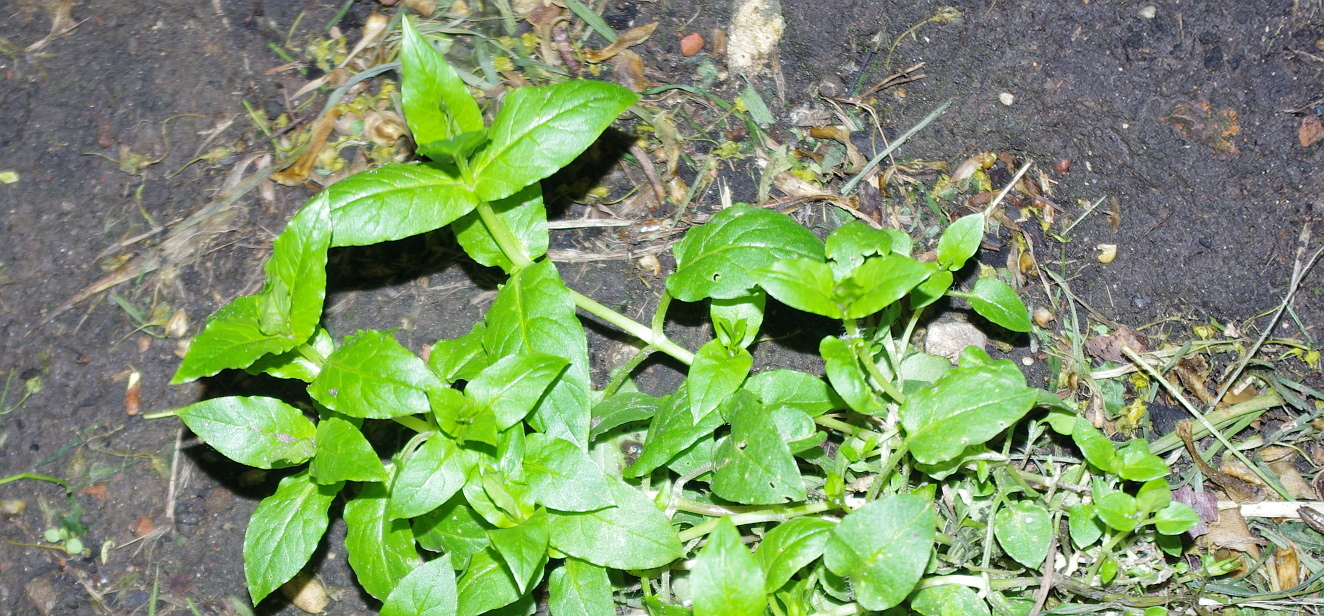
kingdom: Plantae
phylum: Tracheophyta
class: Magnoliopsida
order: Caryophyllales
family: Caryophyllaceae
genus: Stellaria
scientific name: Stellaria aquatica
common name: Water chickweed
